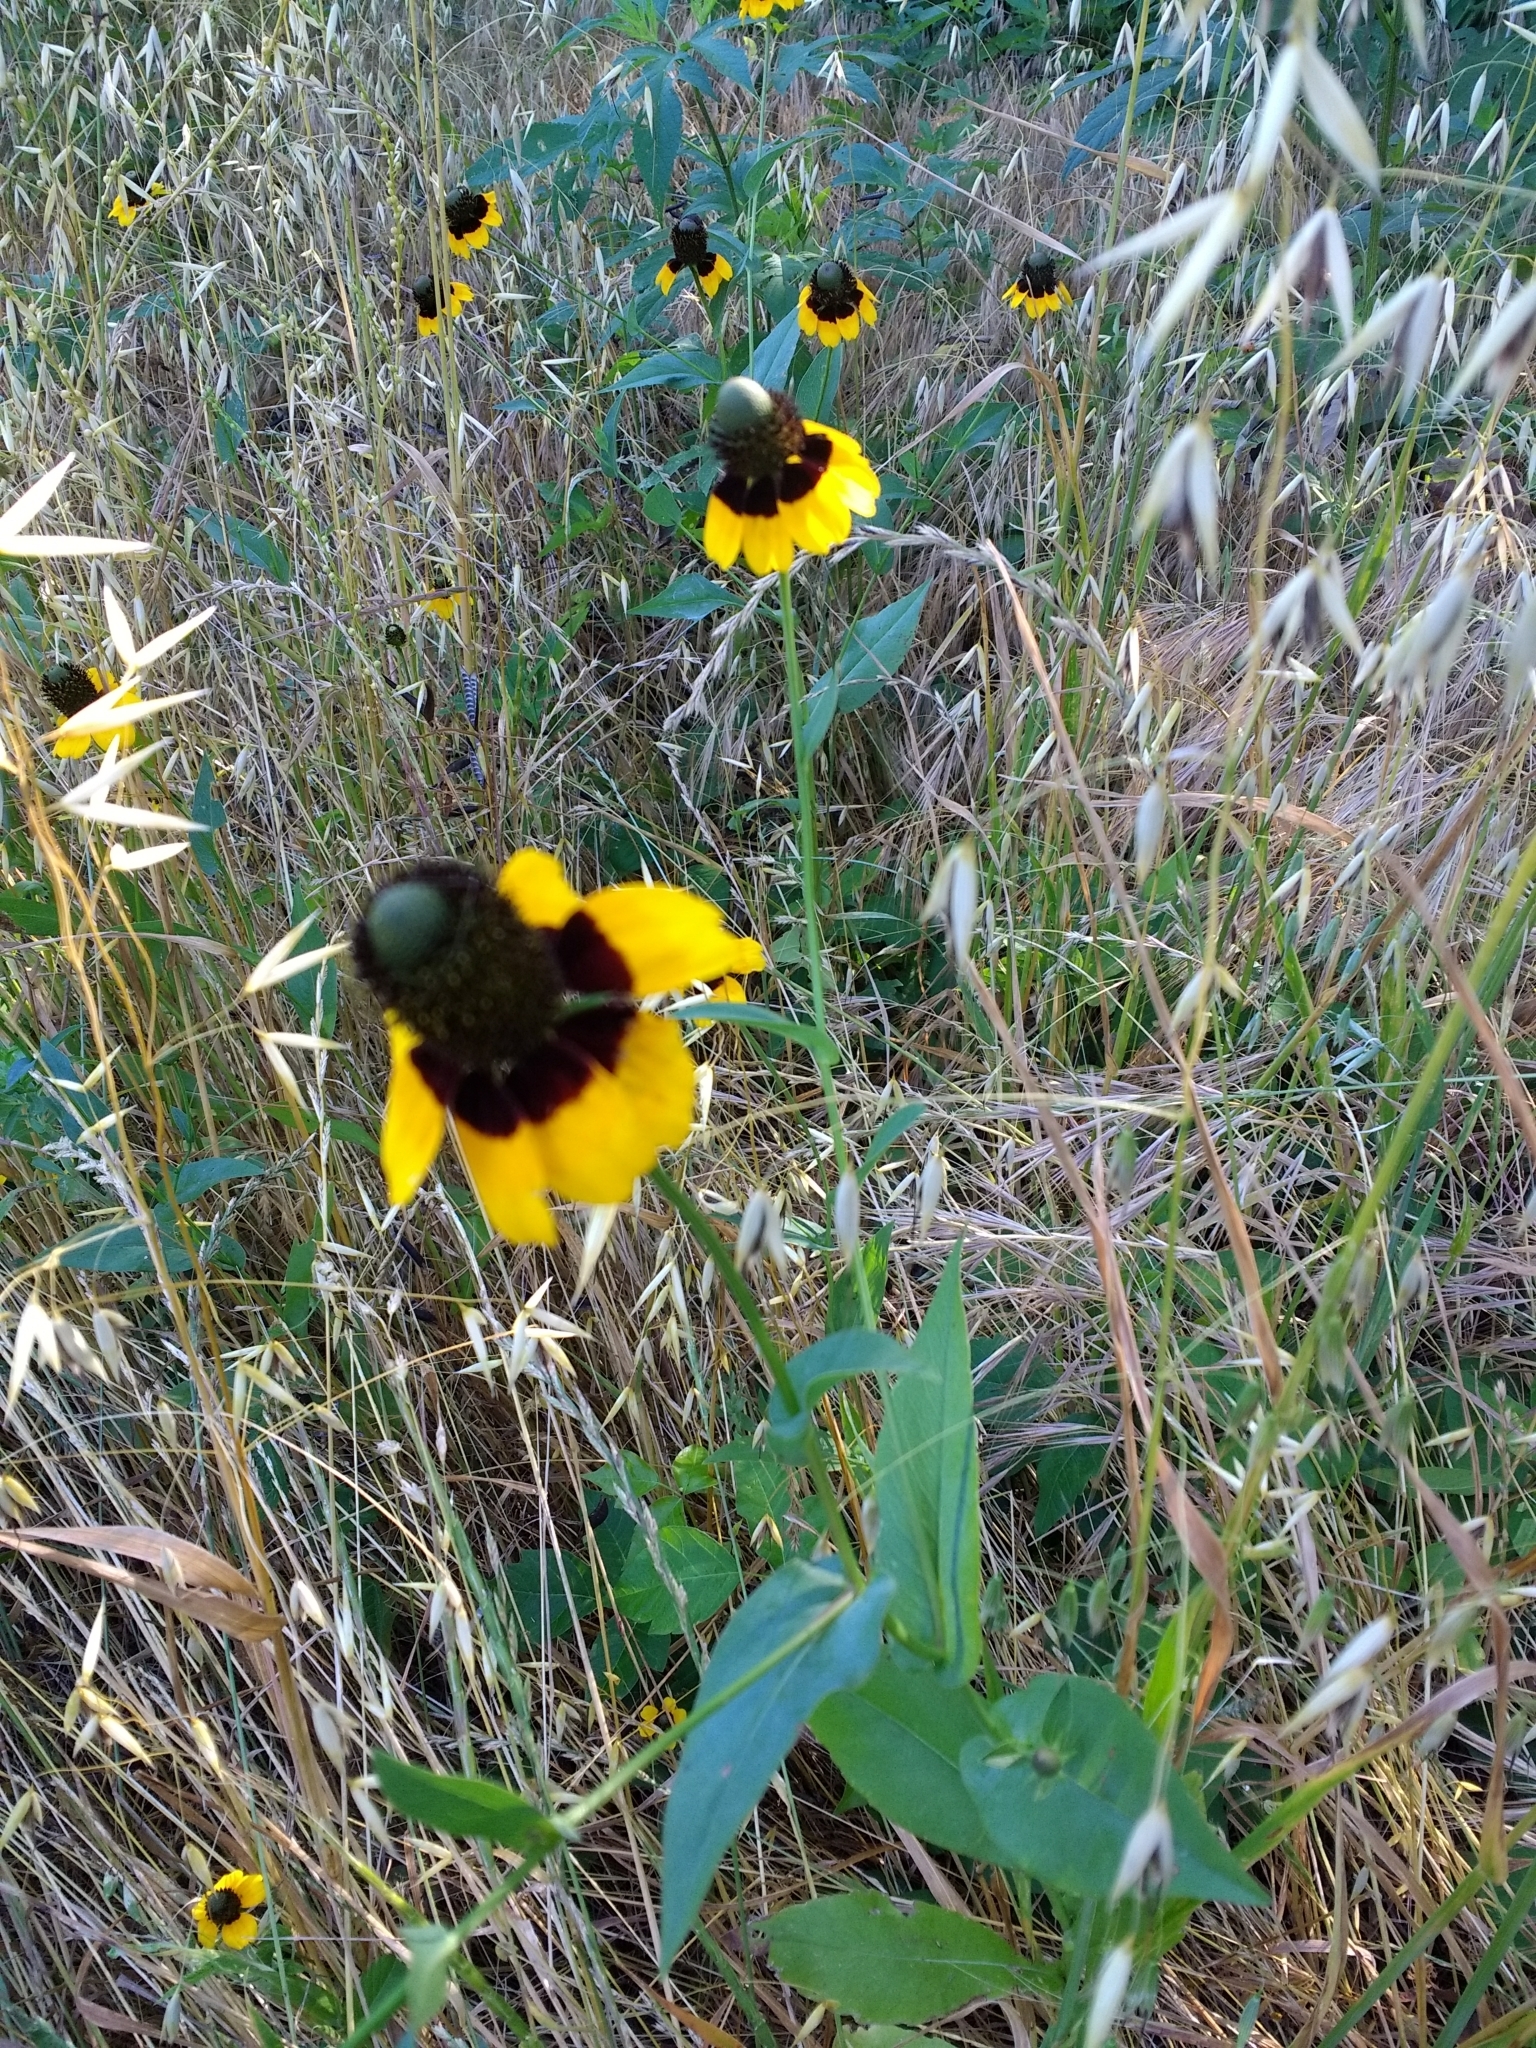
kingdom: Plantae
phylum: Tracheophyta
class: Magnoliopsida
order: Asterales
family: Asteraceae
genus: Rudbeckia
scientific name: Rudbeckia amplexicaulis
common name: Clasping-leaf coneflower
